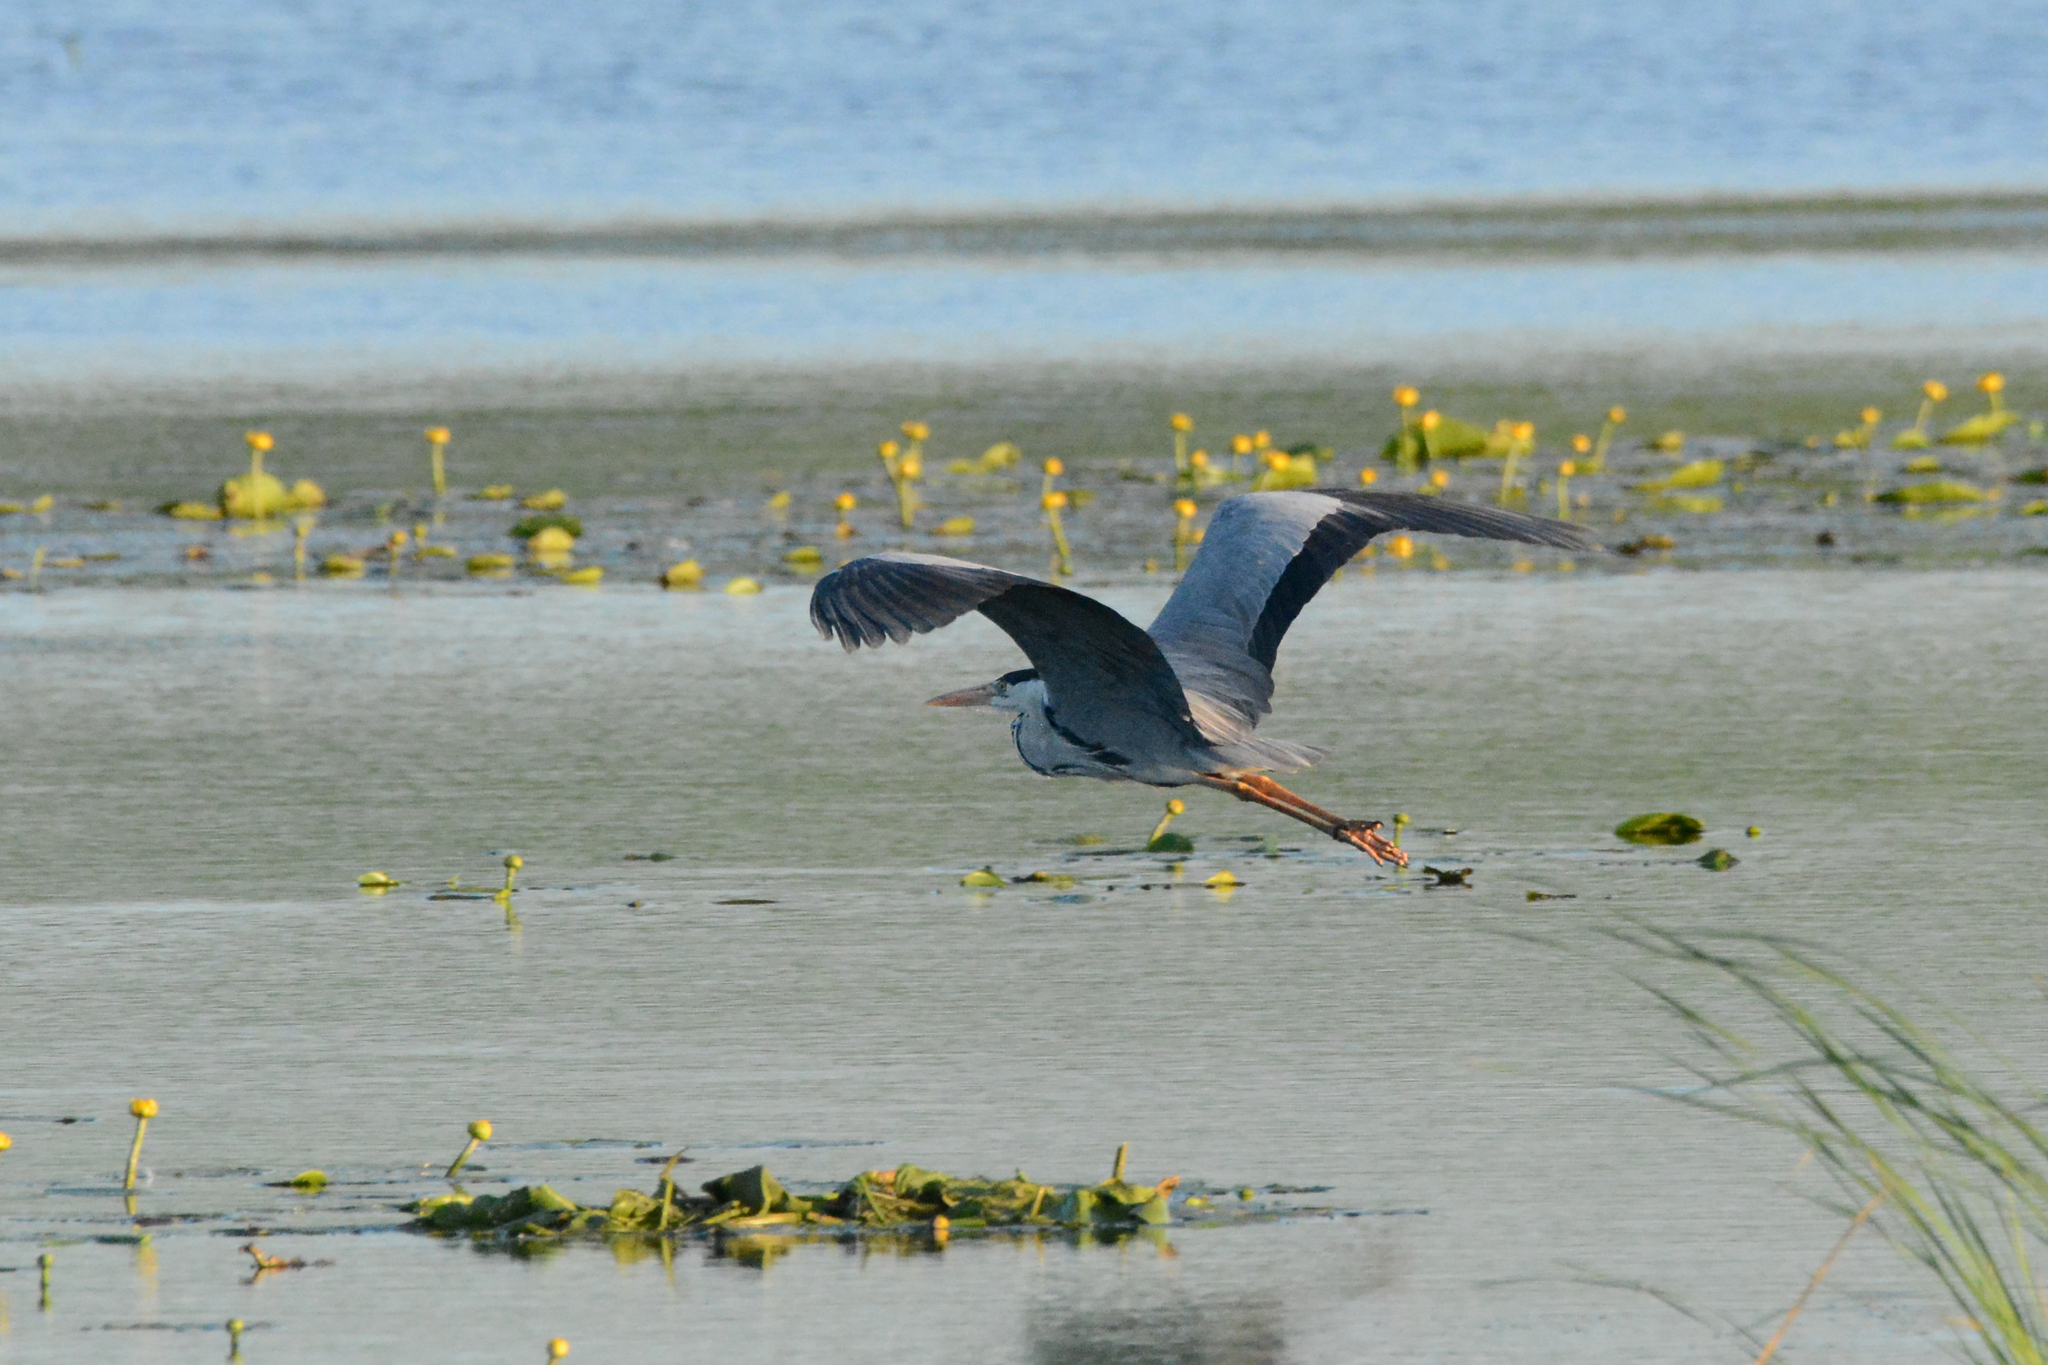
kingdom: Animalia
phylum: Chordata
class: Aves
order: Pelecaniformes
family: Ardeidae
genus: Ardea
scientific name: Ardea cinerea
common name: Grey heron
